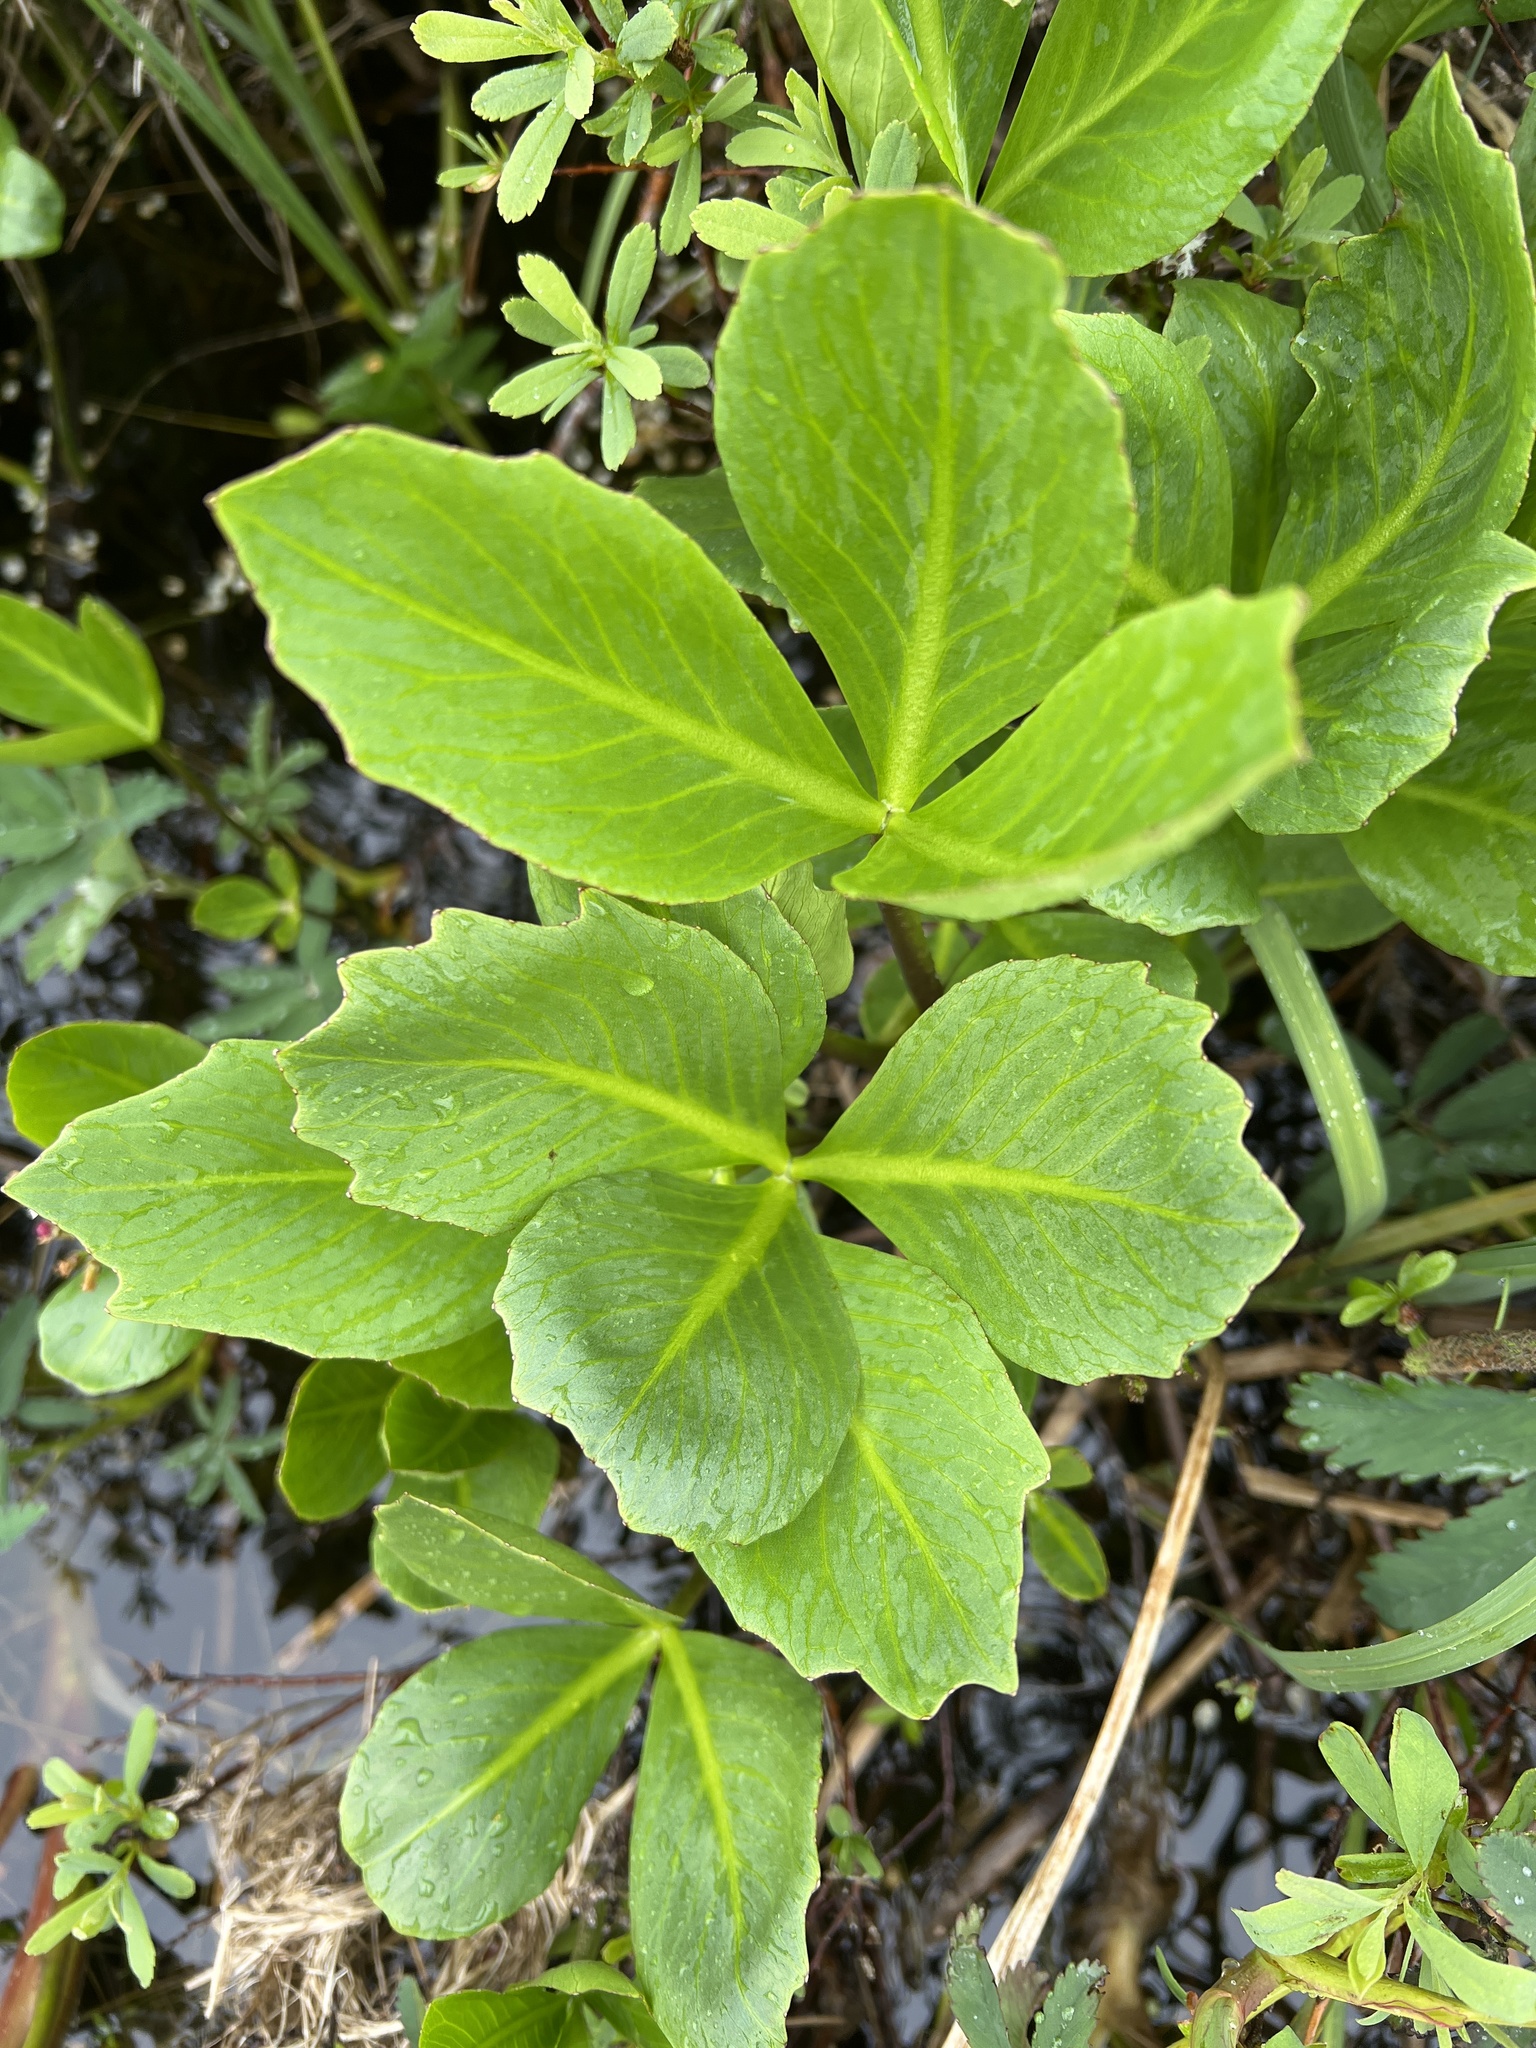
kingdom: Plantae
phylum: Tracheophyta
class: Magnoliopsida
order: Asterales
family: Menyanthaceae
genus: Menyanthes
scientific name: Menyanthes trifoliata
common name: Bogbean
